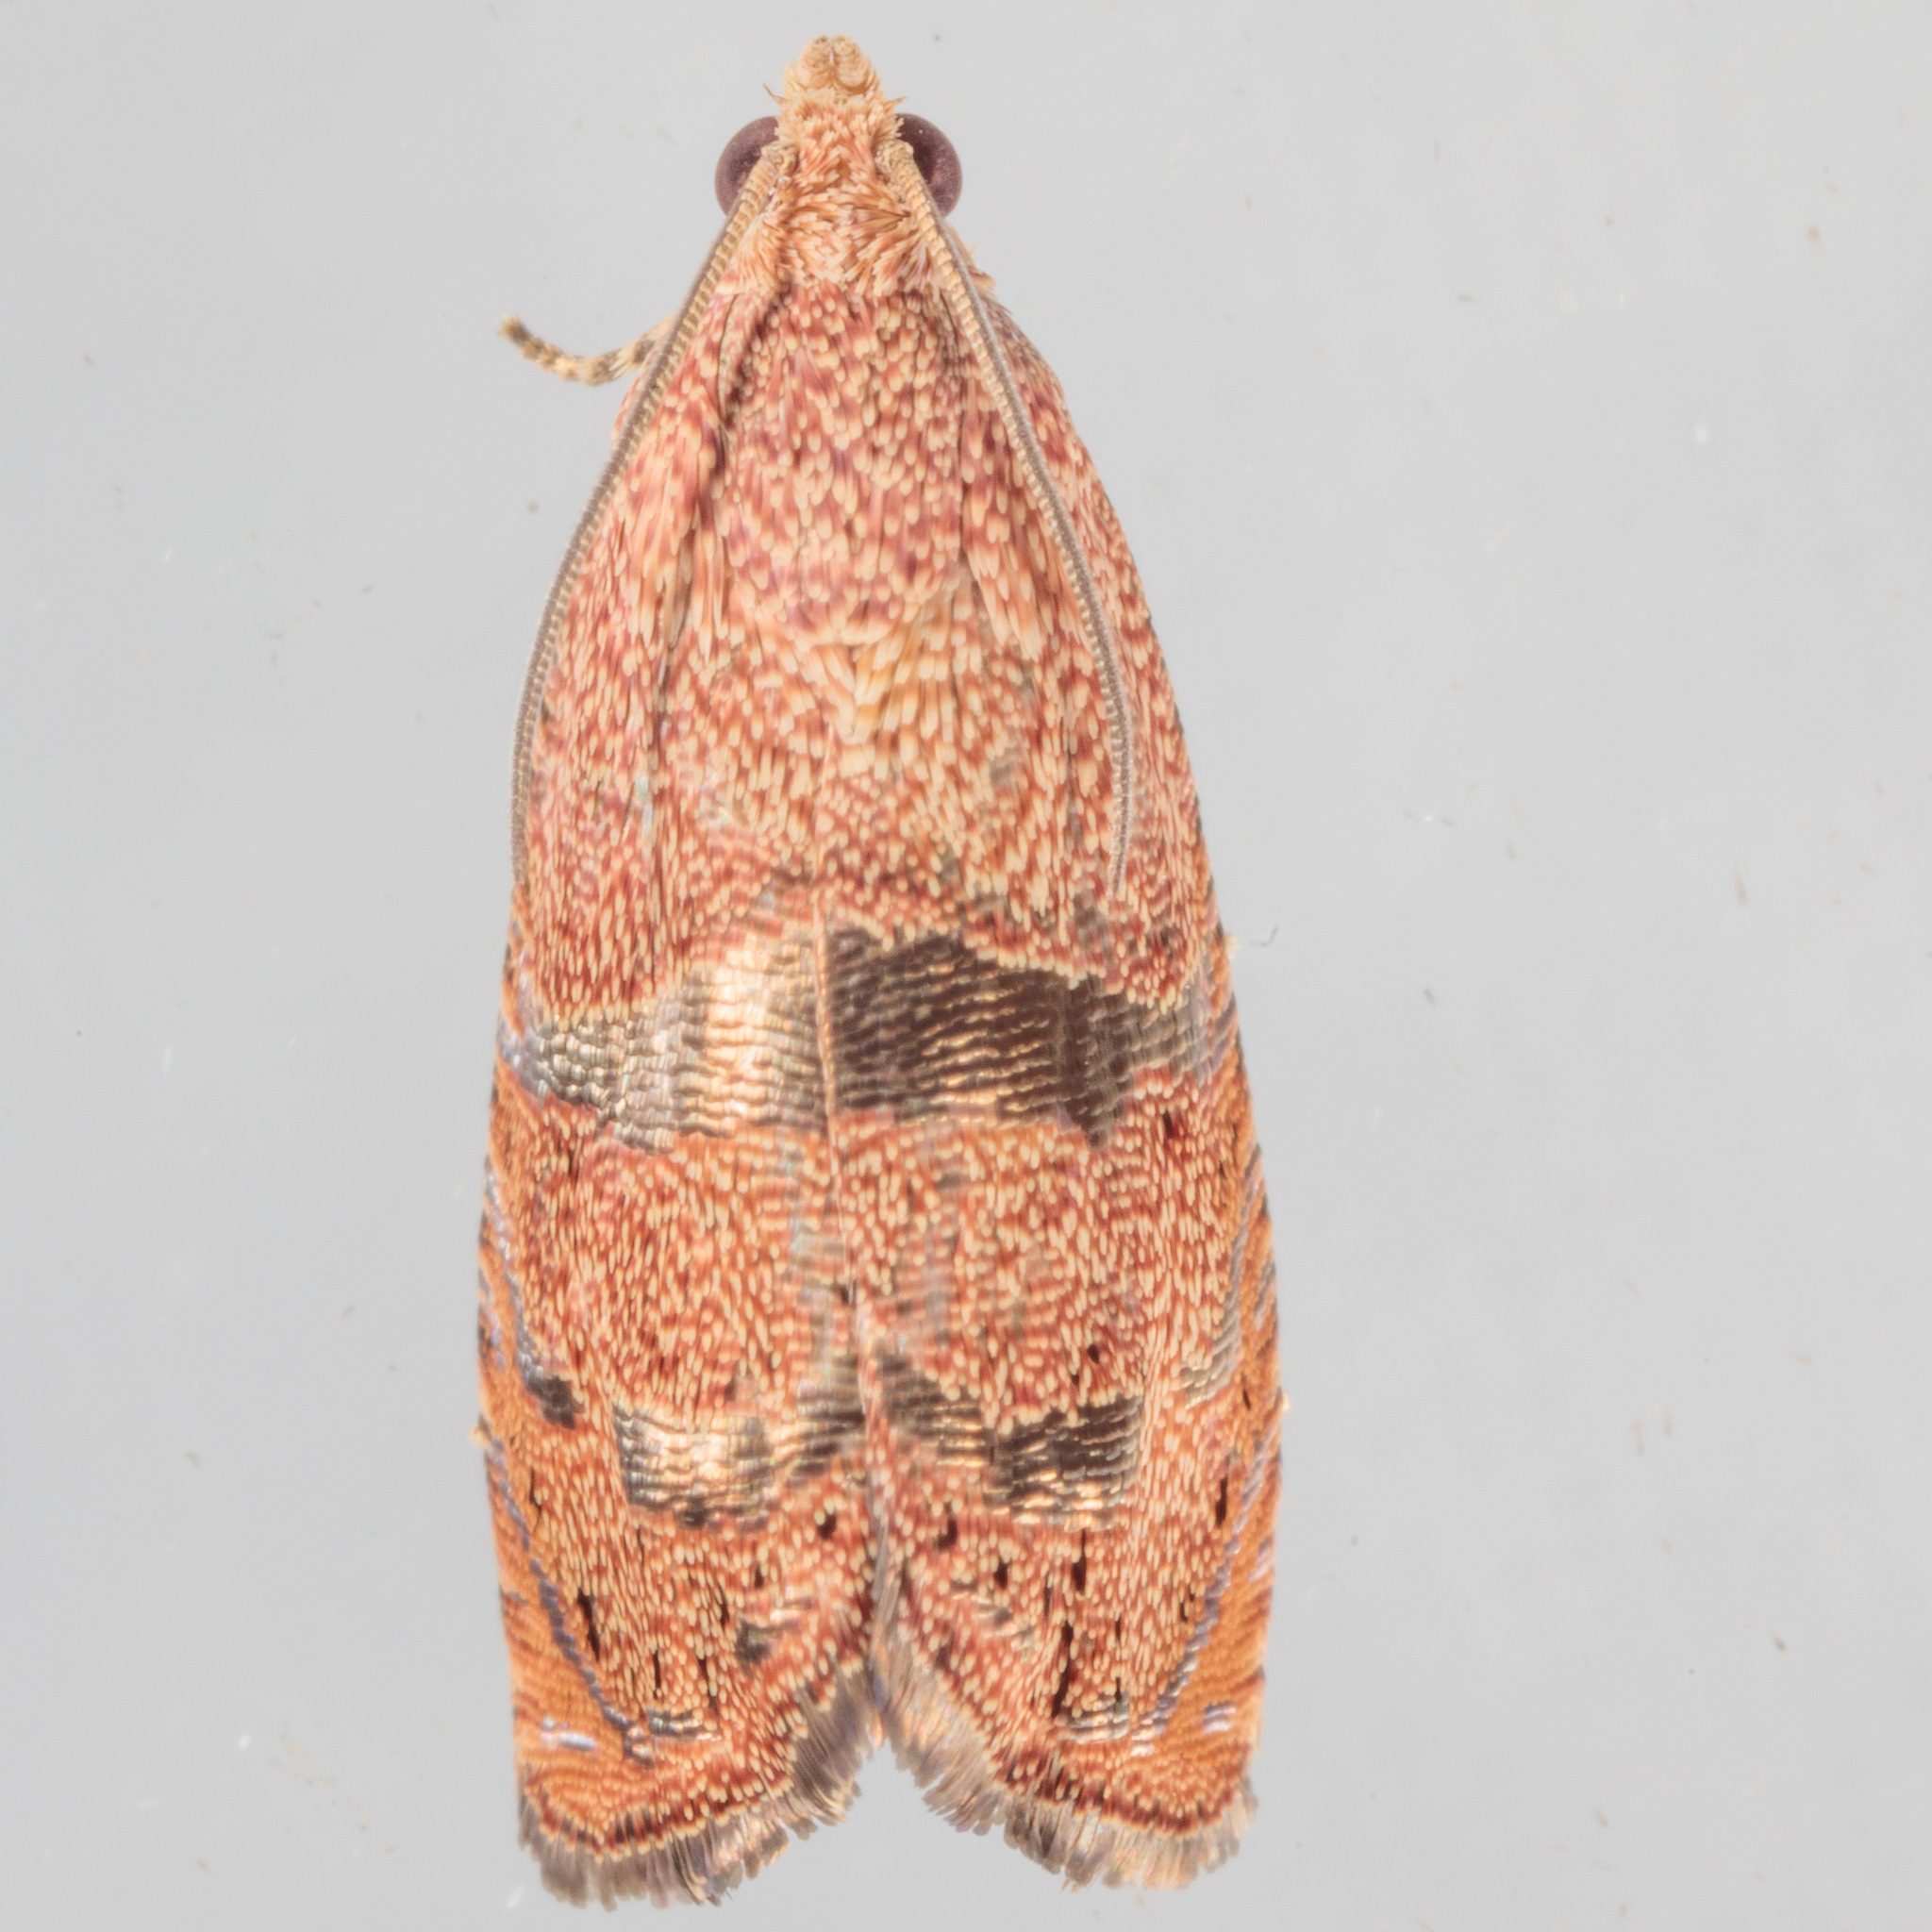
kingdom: Animalia
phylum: Arthropoda
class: Insecta
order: Lepidoptera
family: Tortricidae
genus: Cydia
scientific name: Cydia latiferreana
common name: Filbertworm moth
